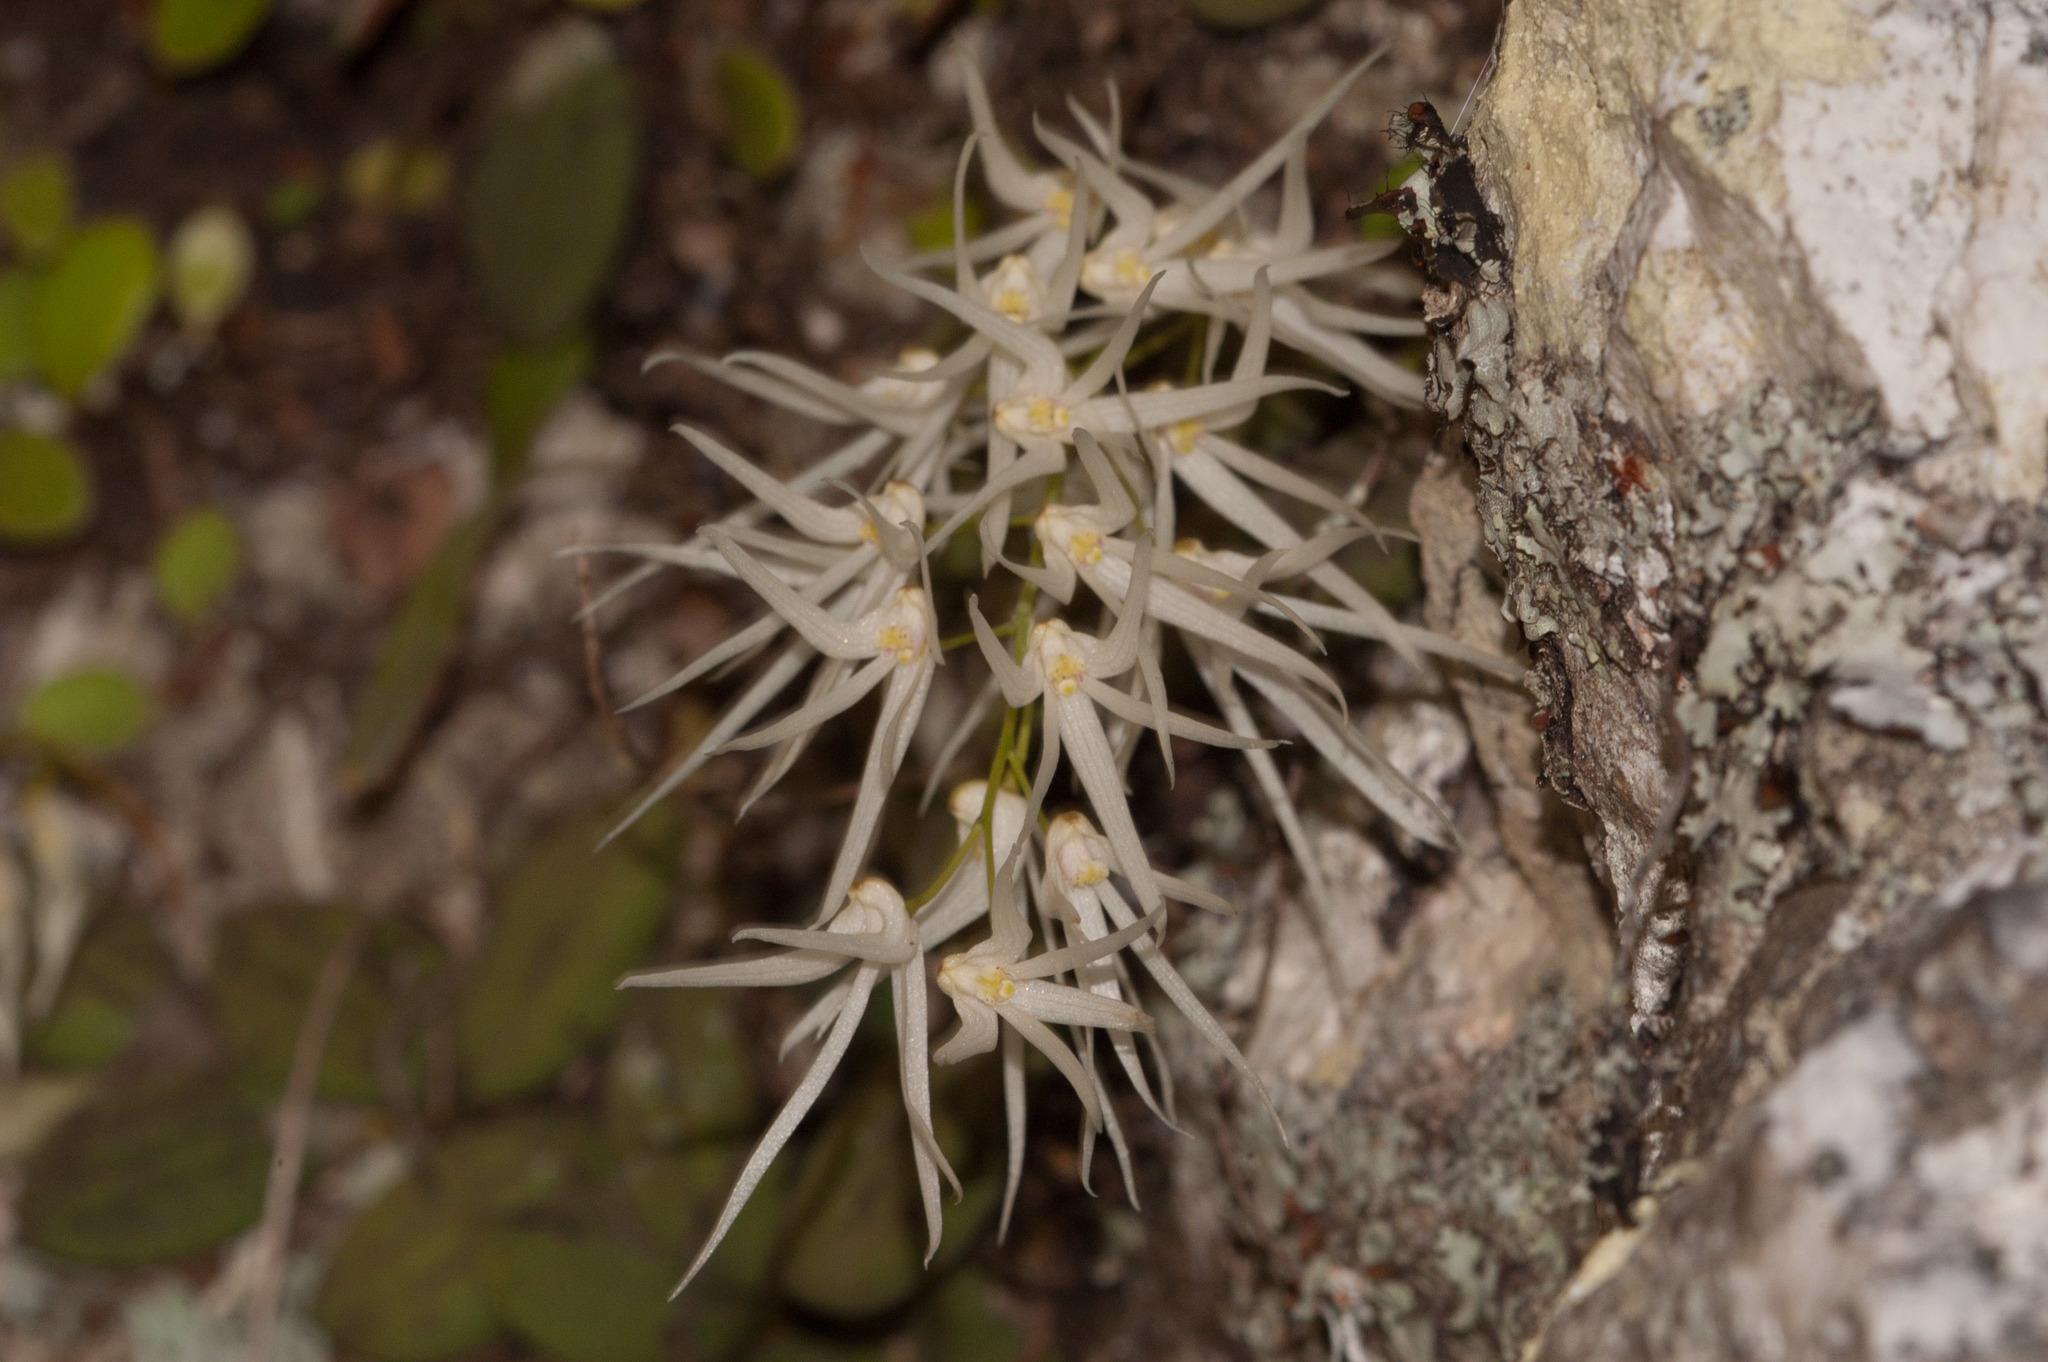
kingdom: Plantae
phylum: Tracheophyta
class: Liliopsida
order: Asparagales
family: Orchidaceae
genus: Dendrobium
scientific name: Dendrobium linguiforme
